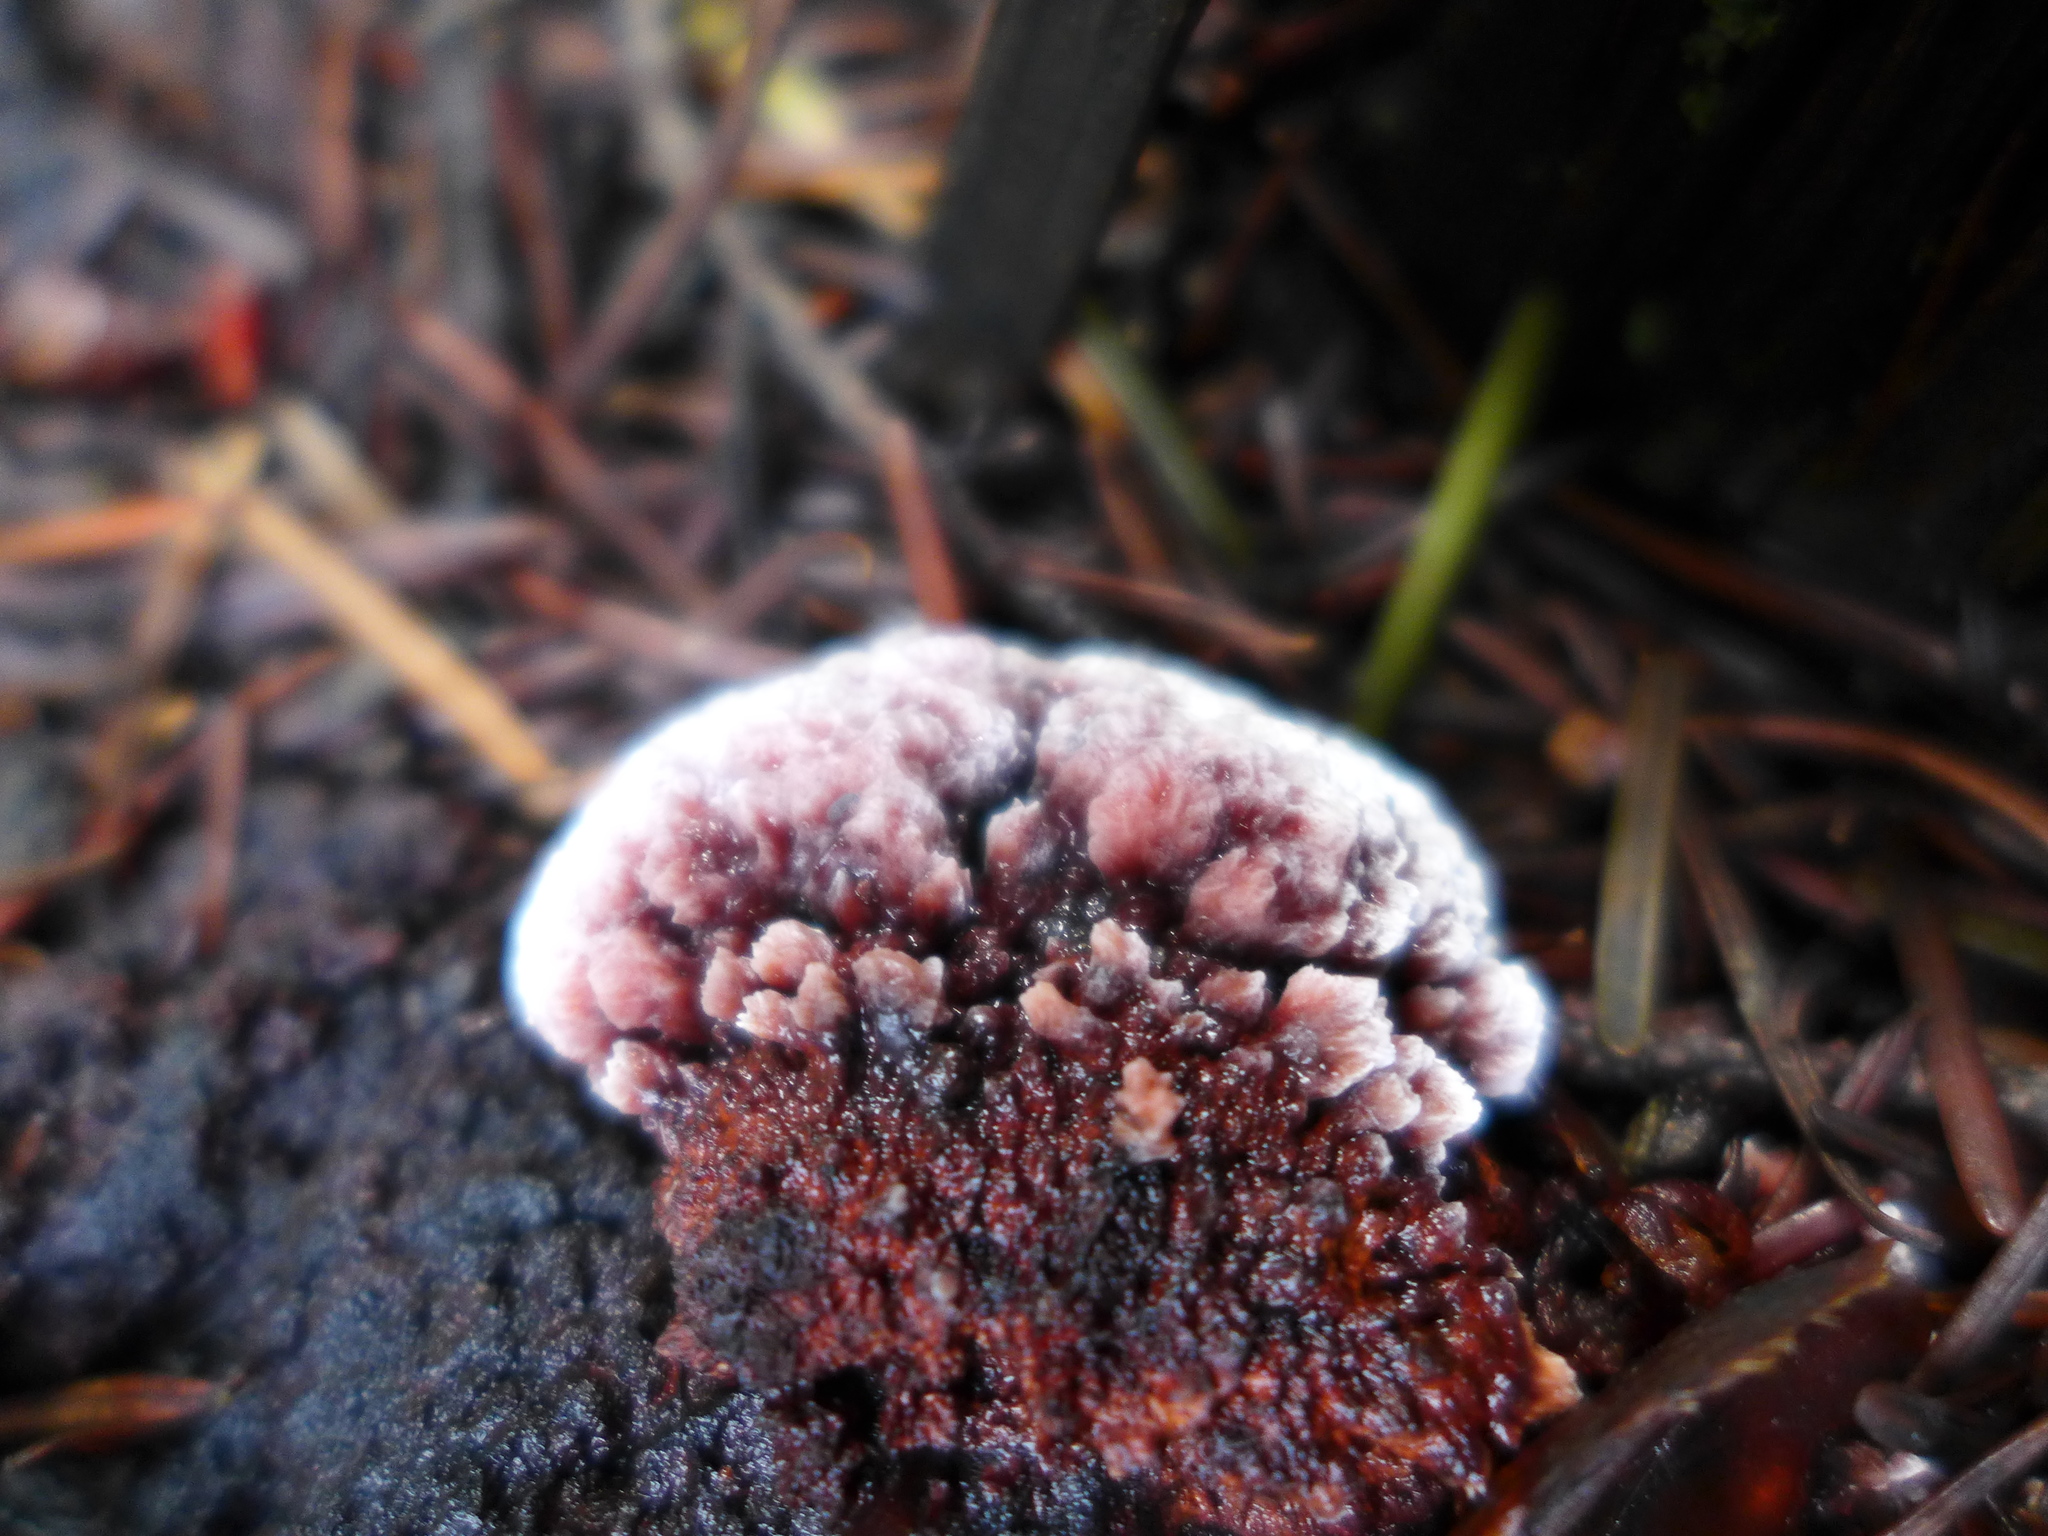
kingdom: Fungi
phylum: Basidiomycota
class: Agaricomycetes
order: Polyporales
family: Fomitopsidaceae
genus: Rhodofomes
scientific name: Rhodofomes cajanderi
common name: Rosy conk
